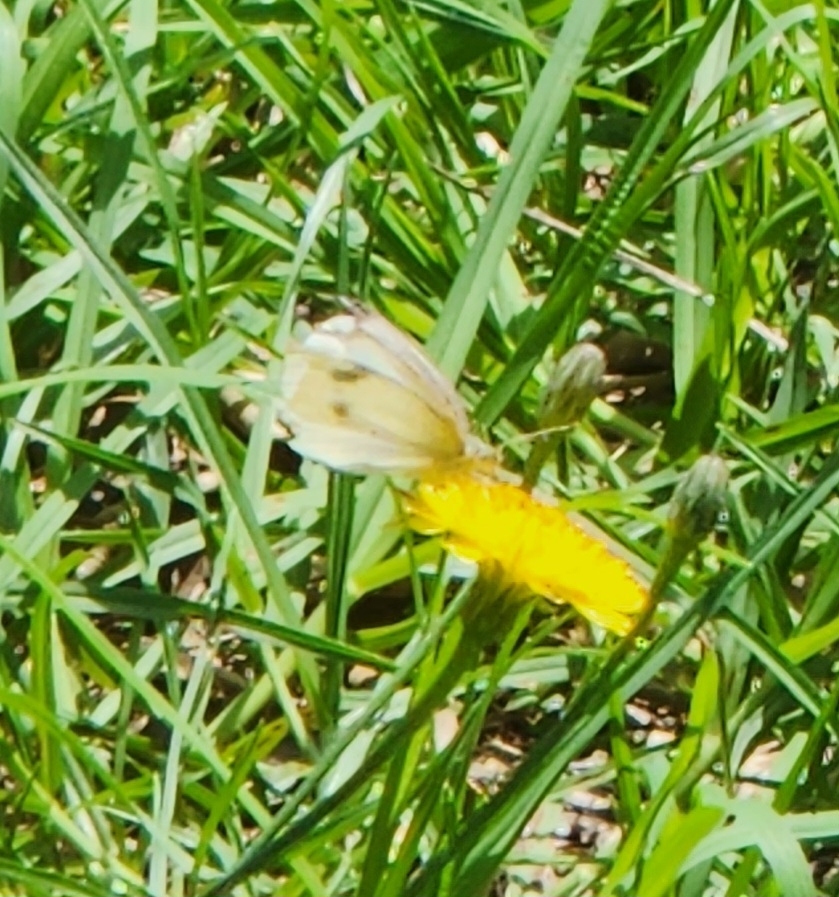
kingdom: Animalia
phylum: Arthropoda
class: Insecta
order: Lepidoptera
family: Pieridae
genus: Pieris
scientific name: Pieris rapae
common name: Small white
